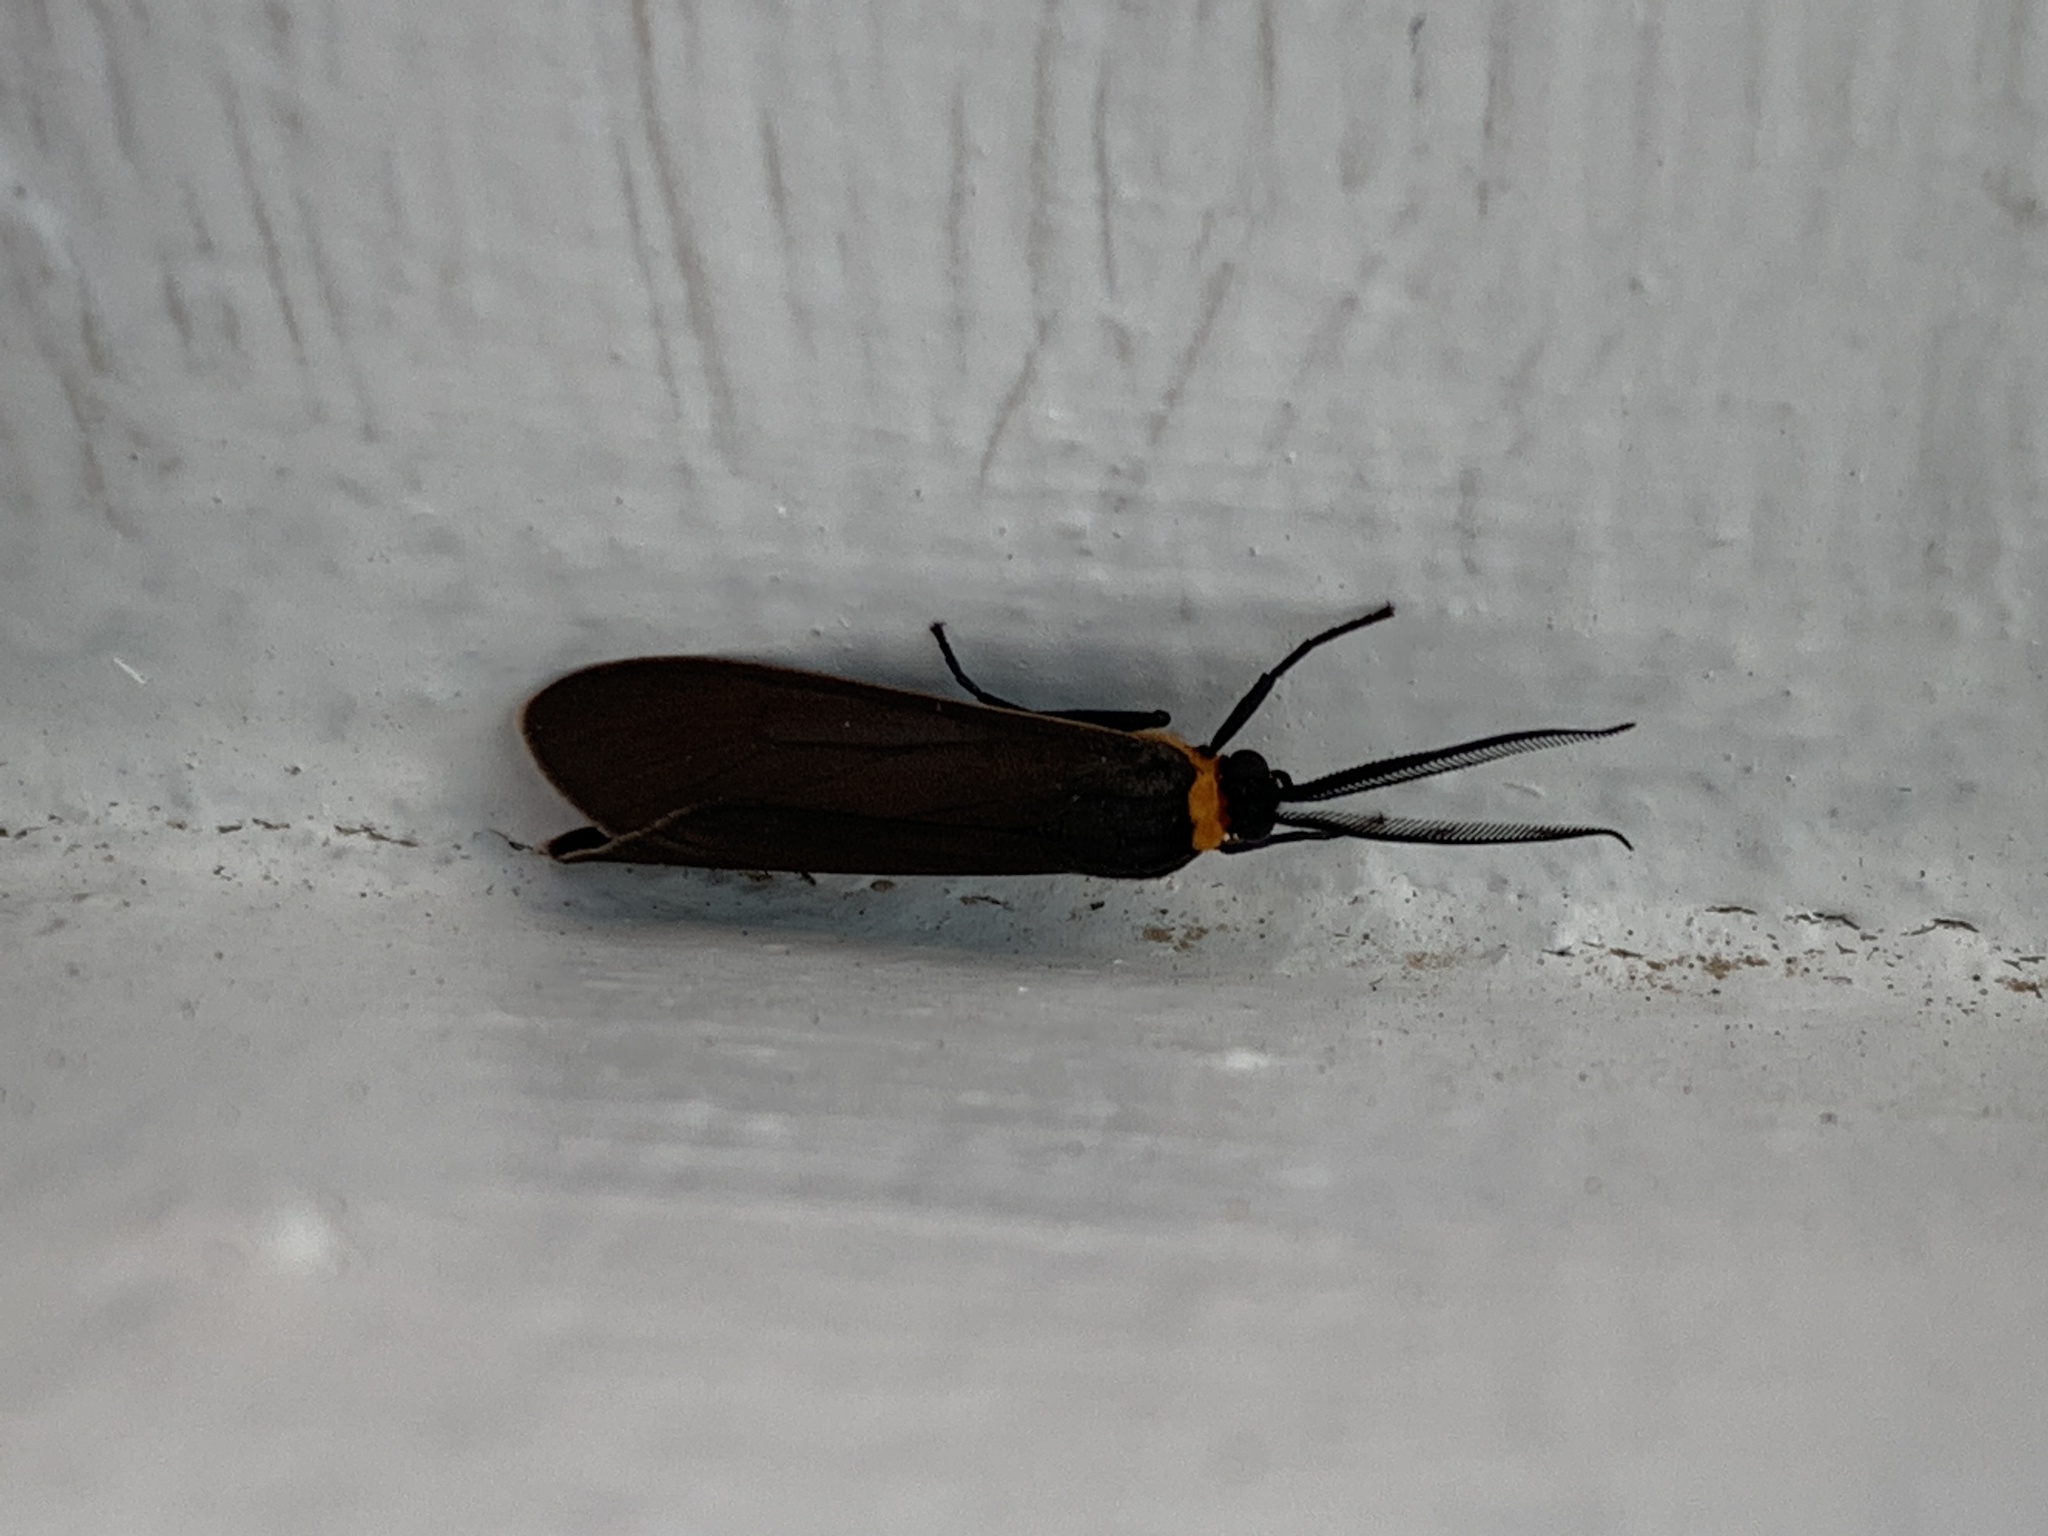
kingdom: Animalia
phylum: Arthropoda
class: Insecta
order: Lepidoptera
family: Erebidae
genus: Cisseps
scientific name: Cisseps fulvicollis
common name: Yellow-collared scape moth
